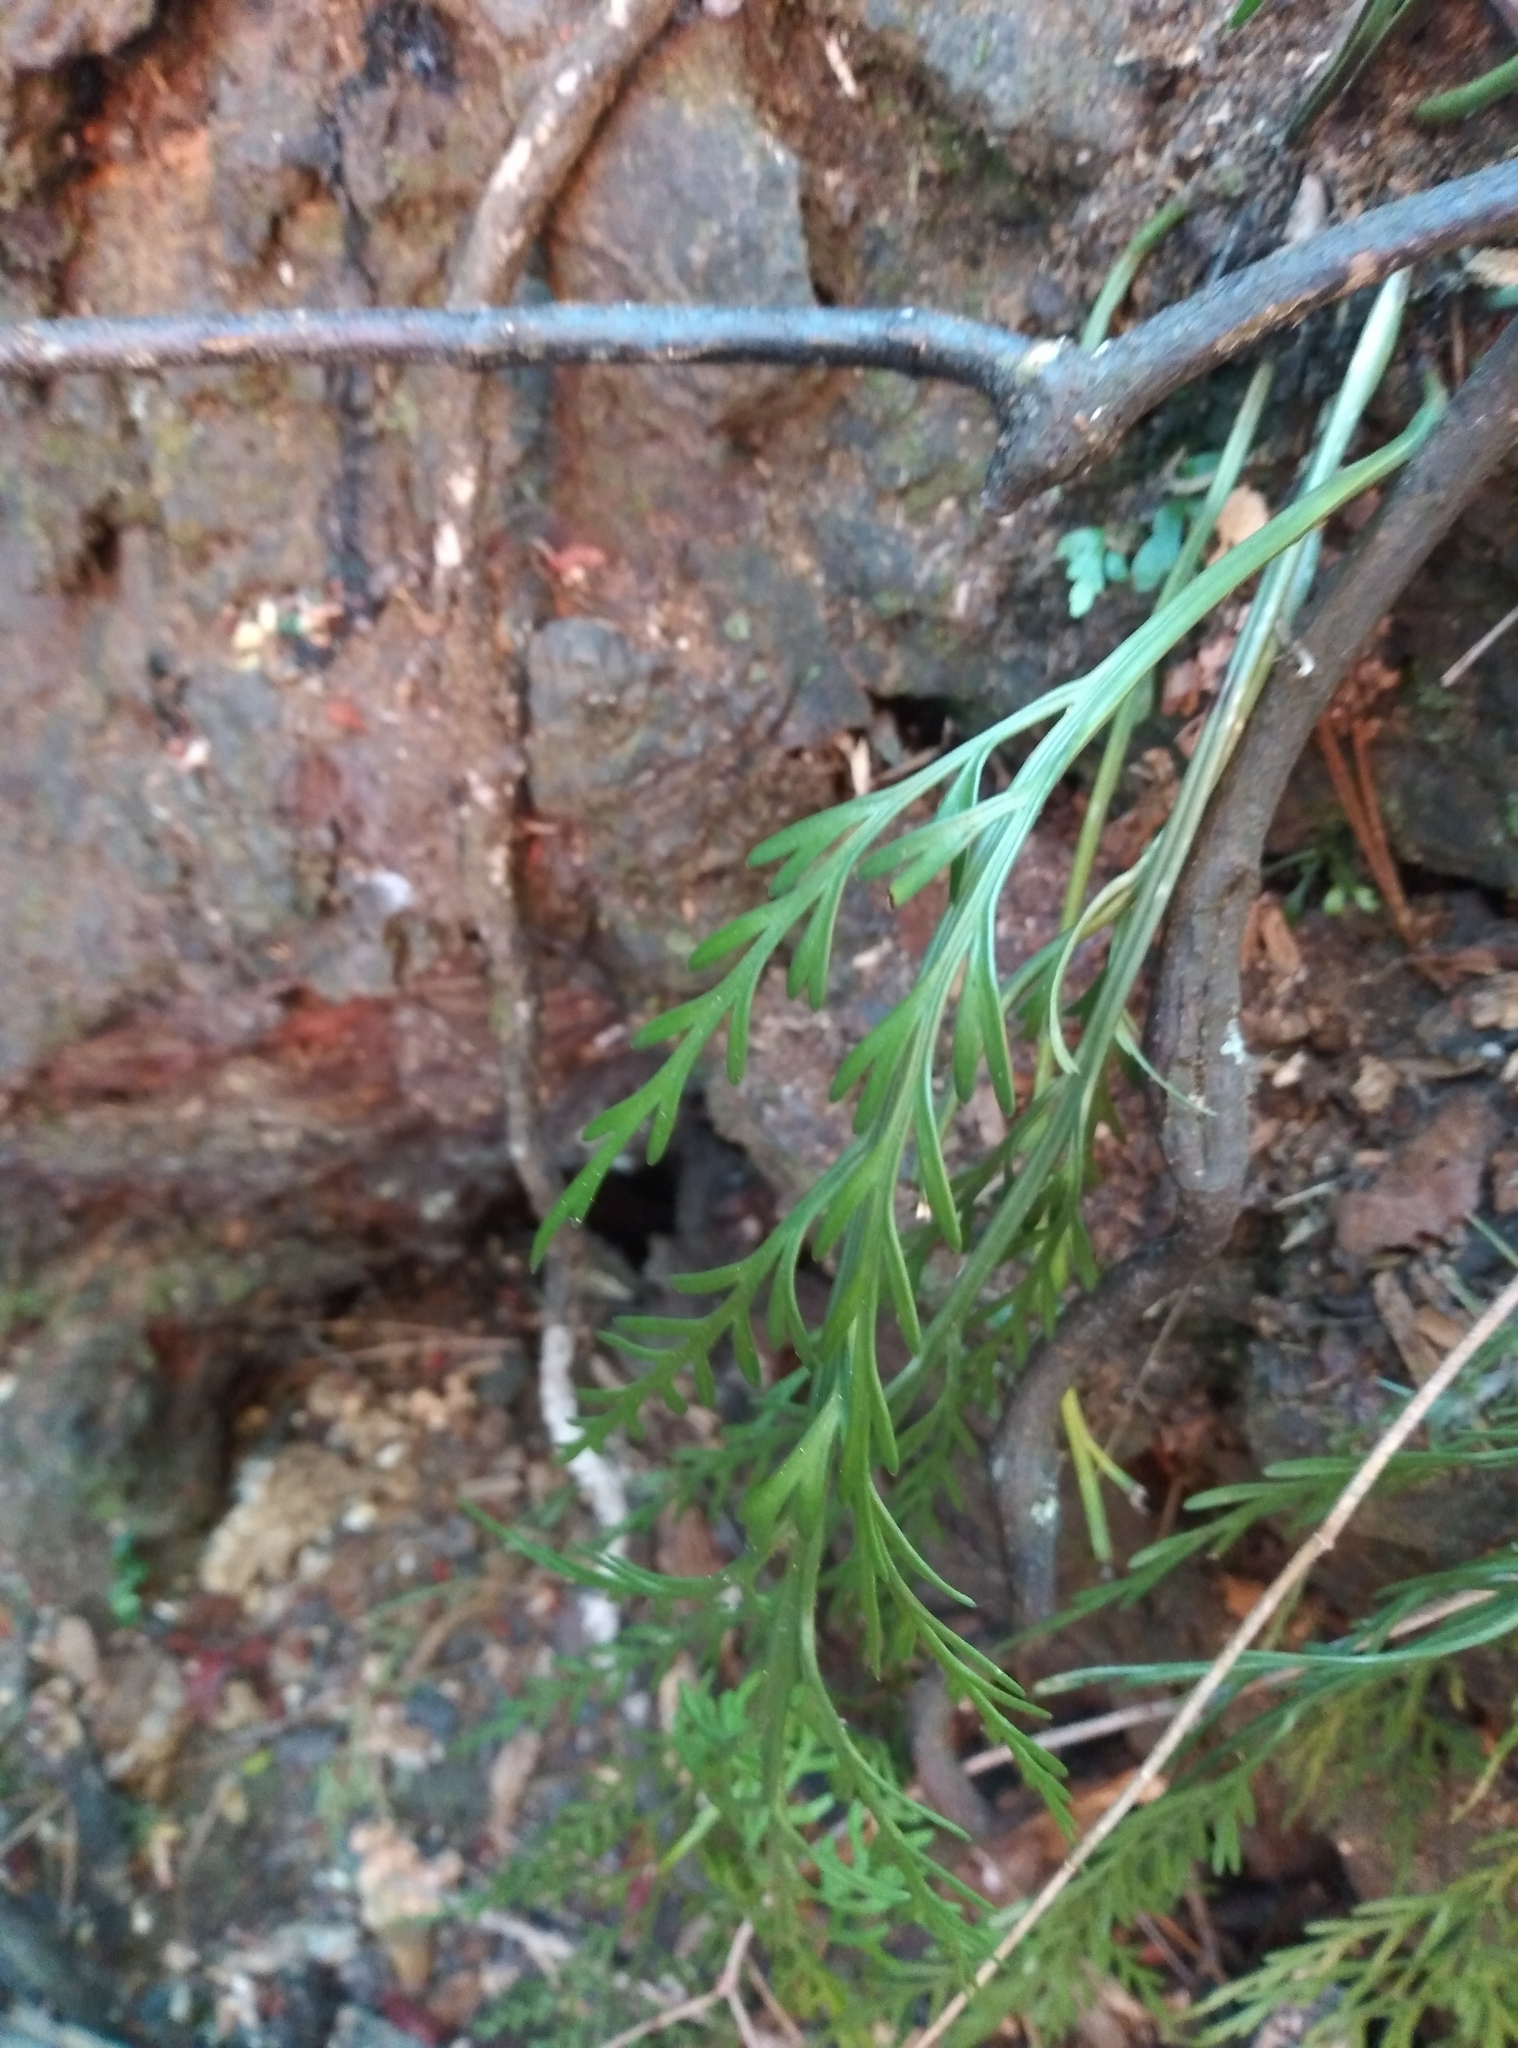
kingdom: Plantae
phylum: Tracheophyta
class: Polypodiopsida
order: Polypodiales
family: Aspleniaceae
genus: Asplenium
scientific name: Asplenium flaccidum
